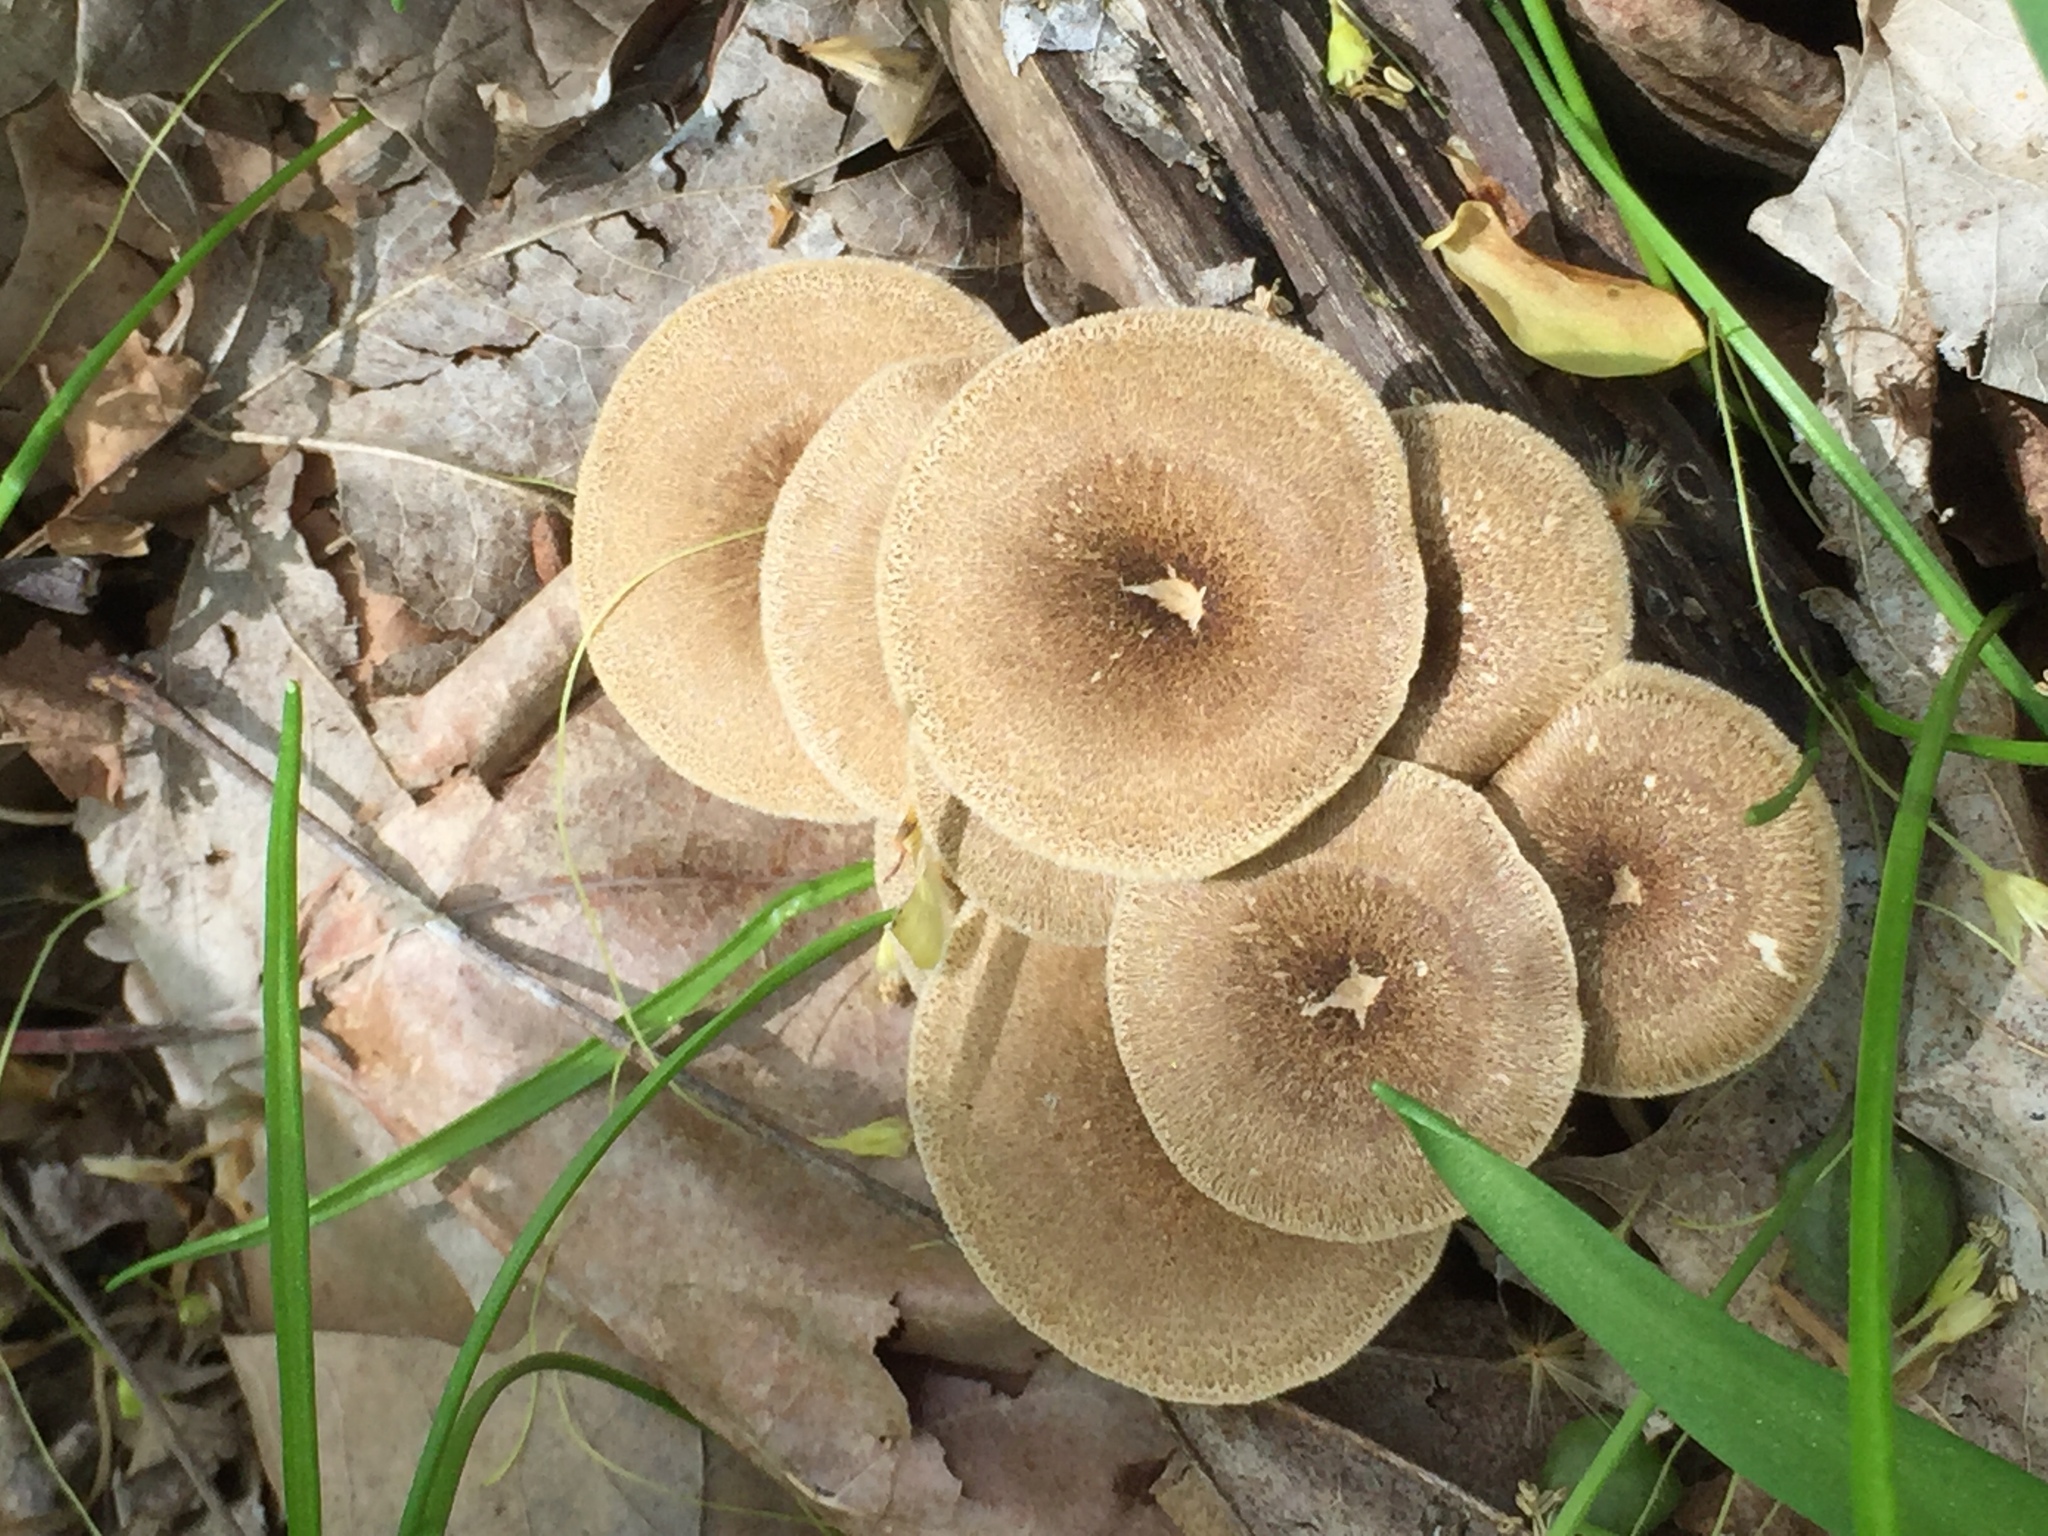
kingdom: Fungi
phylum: Basidiomycota
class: Agaricomycetes
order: Polyporales
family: Polyporaceae
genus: Lentinus
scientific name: Lentinus arcularius
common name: Spring polypore
